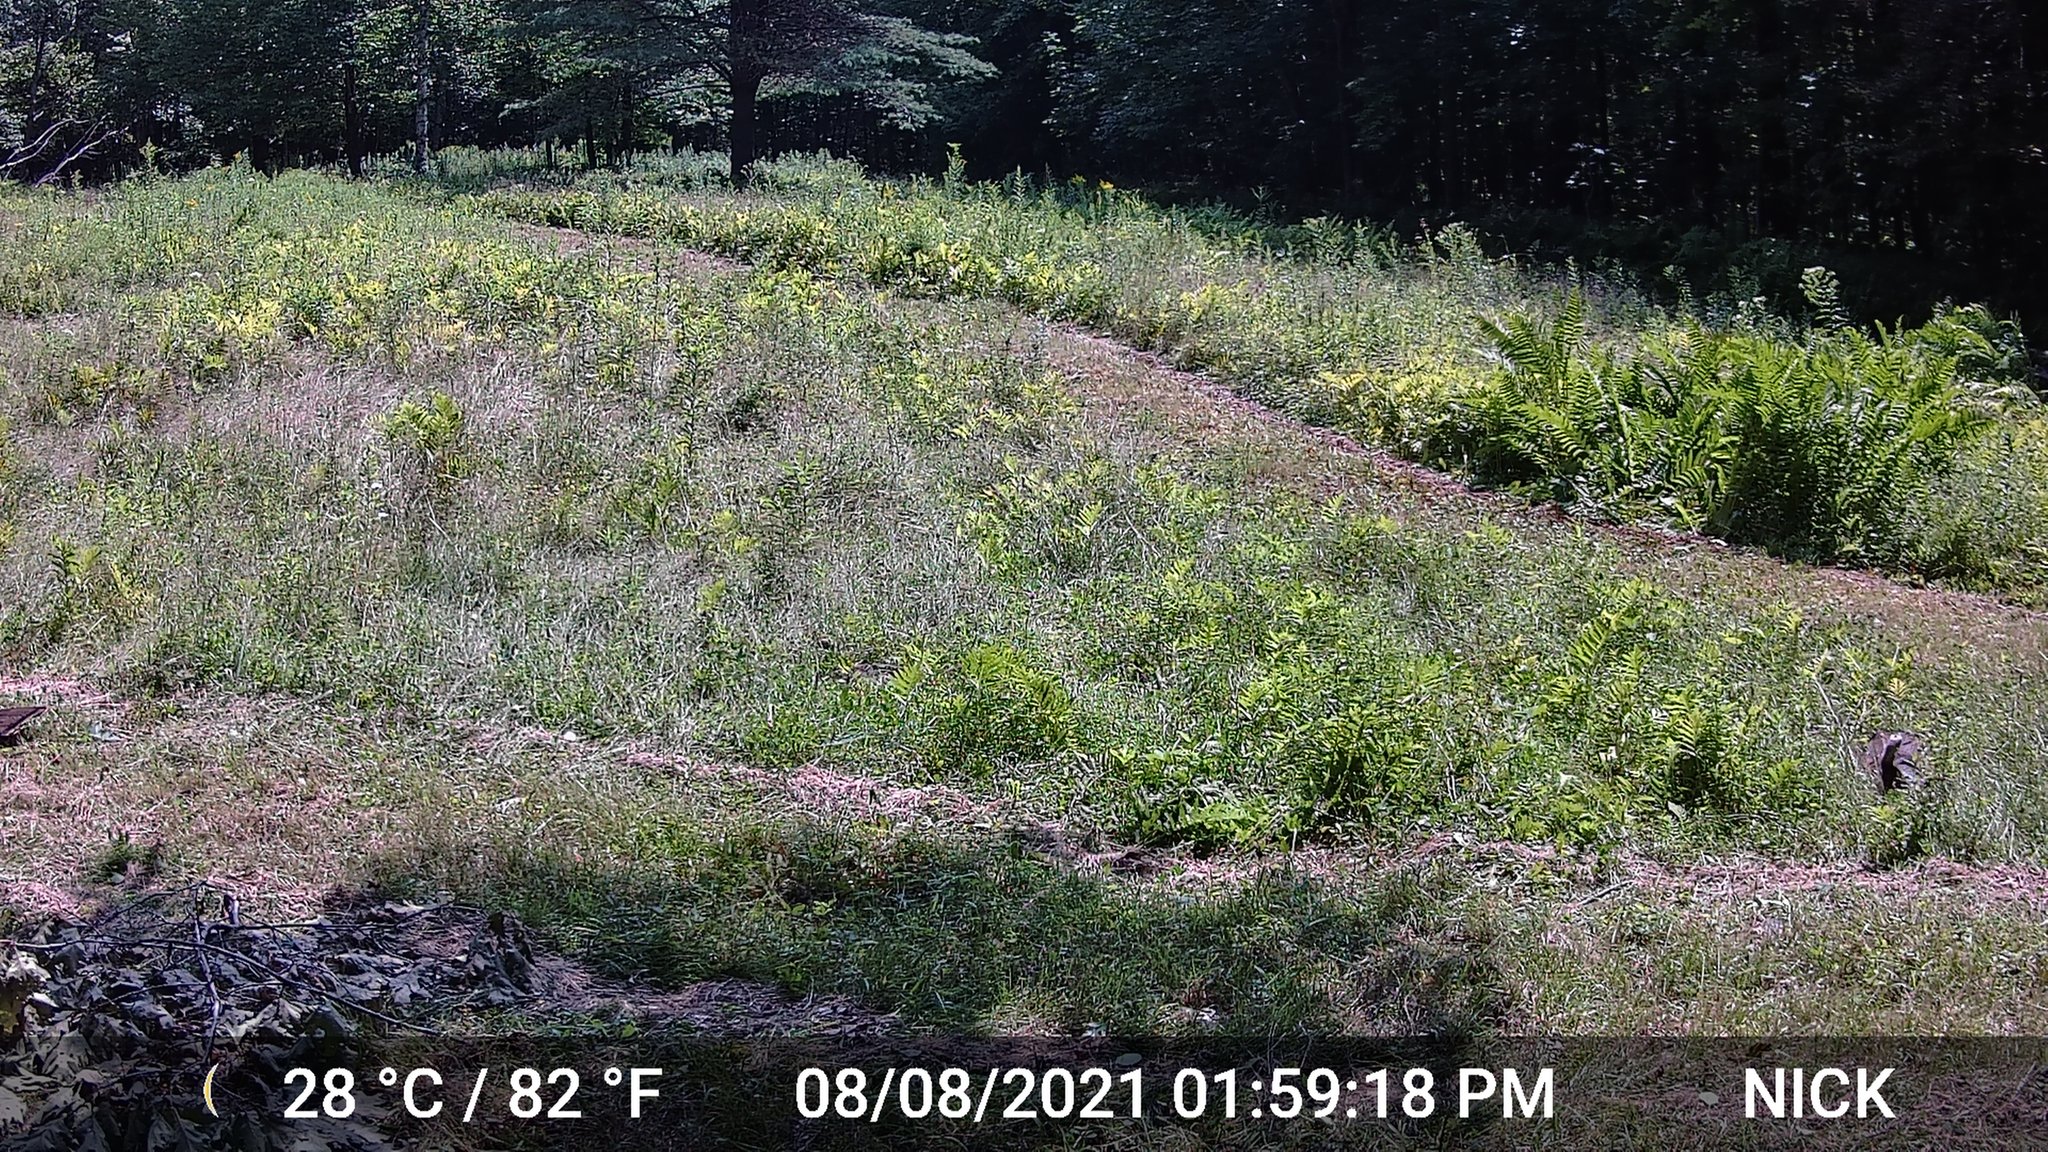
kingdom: Animalia
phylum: Chordata
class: Aves
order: Galliformes
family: Phasianidae
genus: Meleagris
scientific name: Meleagris gallopavo
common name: Wild turkey
